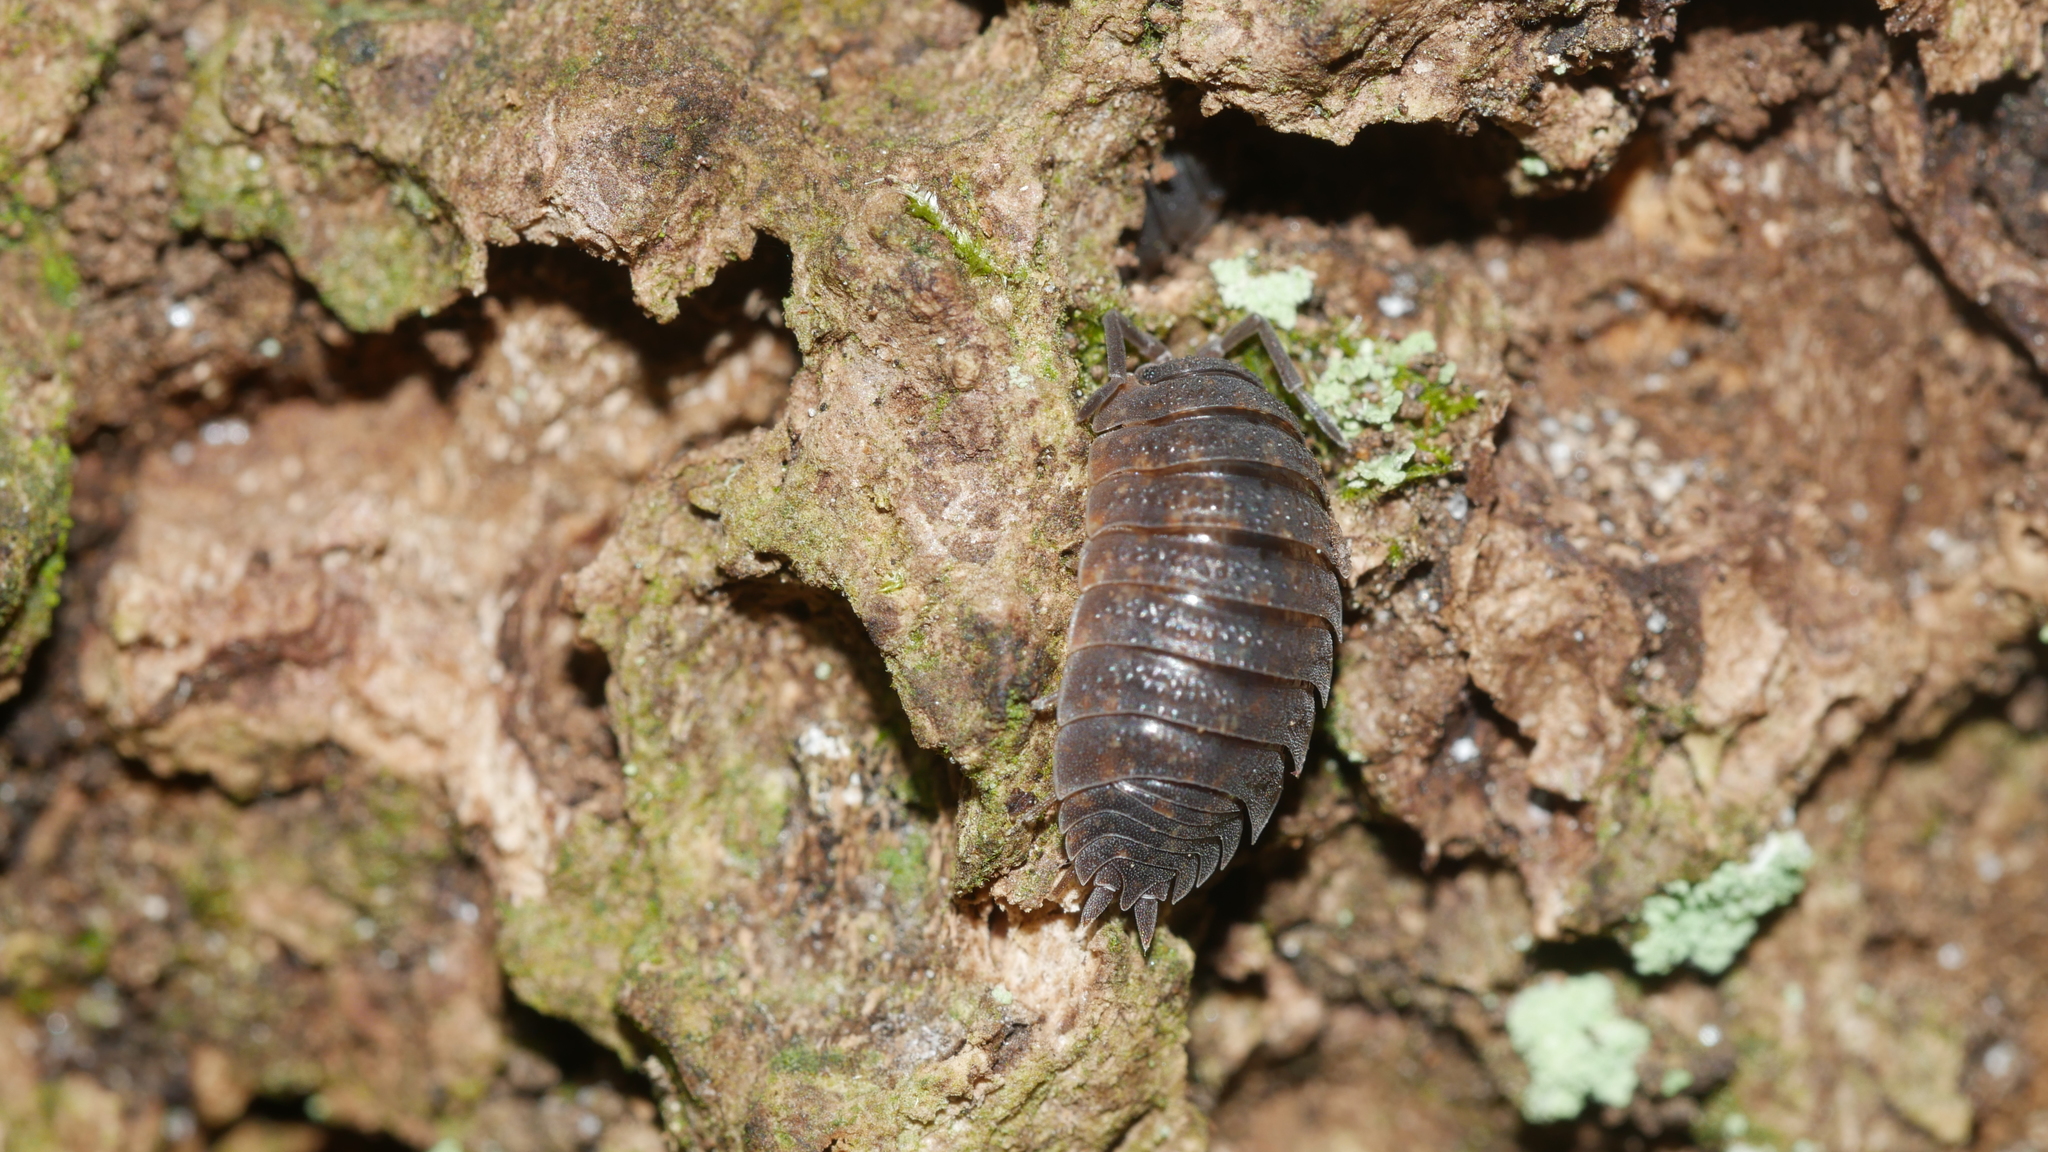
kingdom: Animalia
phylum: Arthropoda
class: Malacostraca
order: Isopoda
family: Porcellionidae
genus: Porcellio
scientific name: Porcellio scaber
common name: Common rough woodlouse
